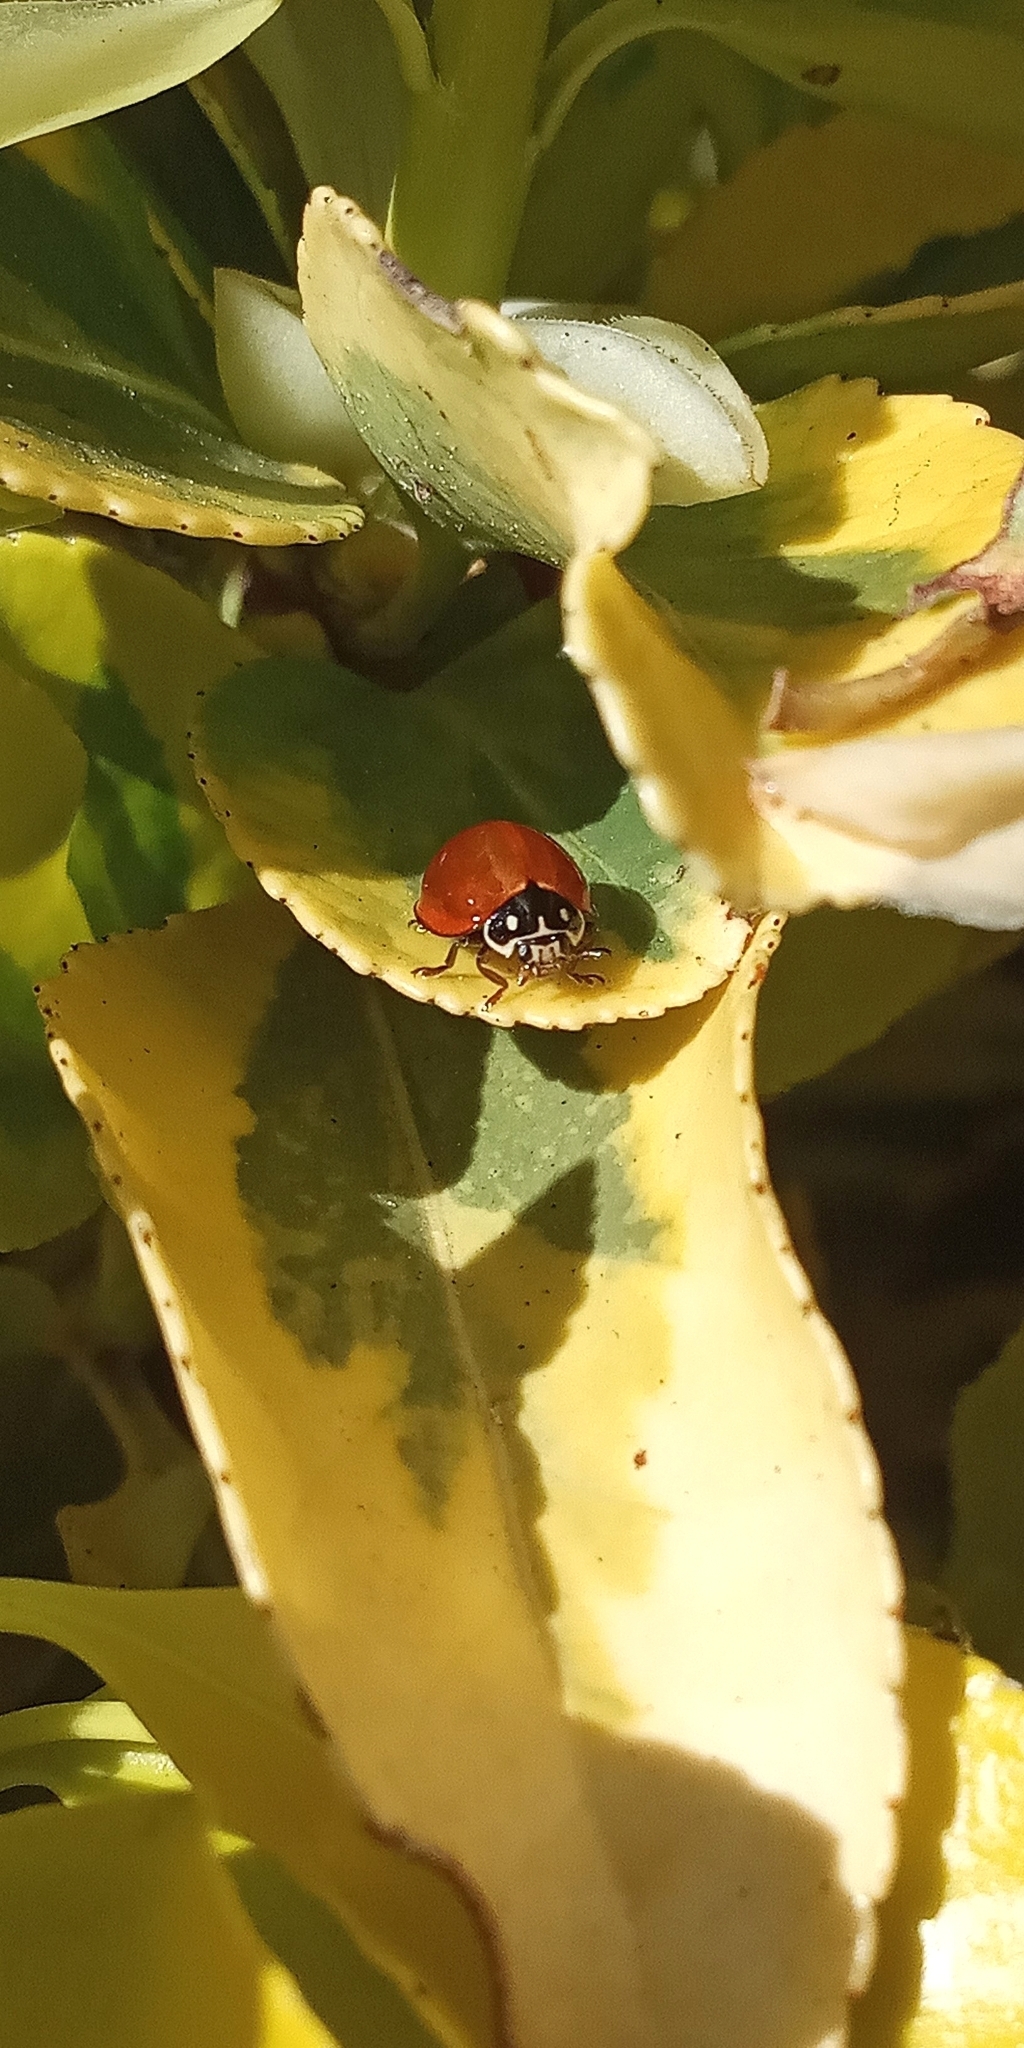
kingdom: Animalia
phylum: Arthropoda
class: Insecta
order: Coleoptera
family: Coccinellidae
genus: Cycloneda
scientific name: Cycloneda sanguinea
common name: Ladybird beetle
